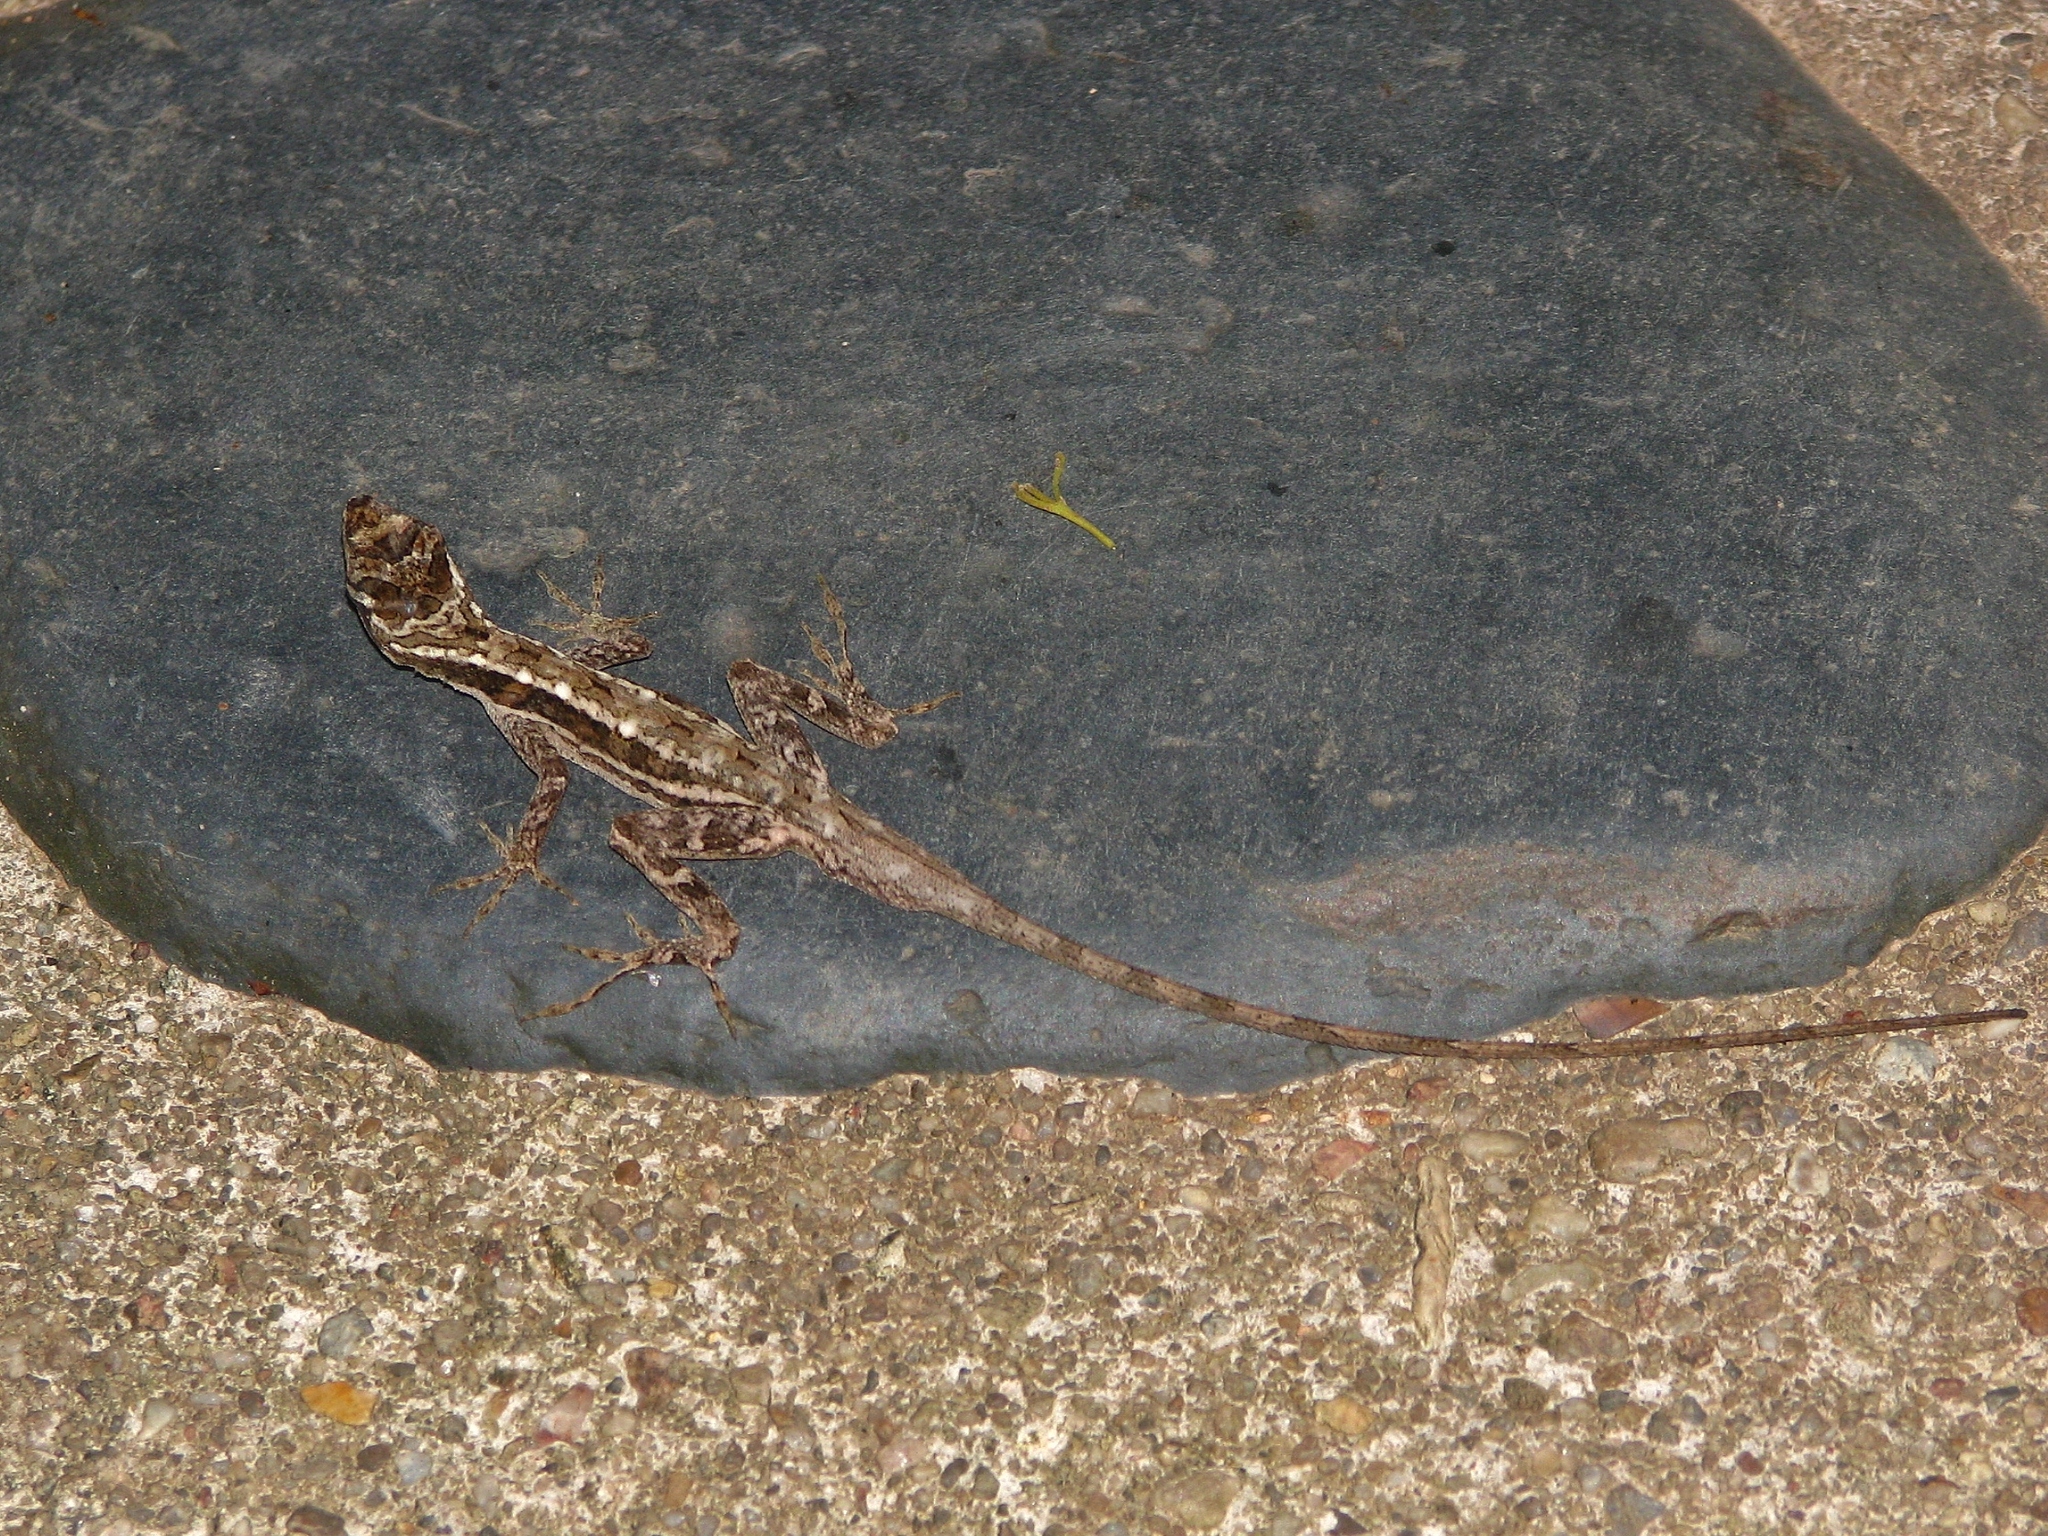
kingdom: Animalia
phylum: Chordata
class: Squamata
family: Dactyloidae
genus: Anolis
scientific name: Anolis lemurinus
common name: Ghost anole
